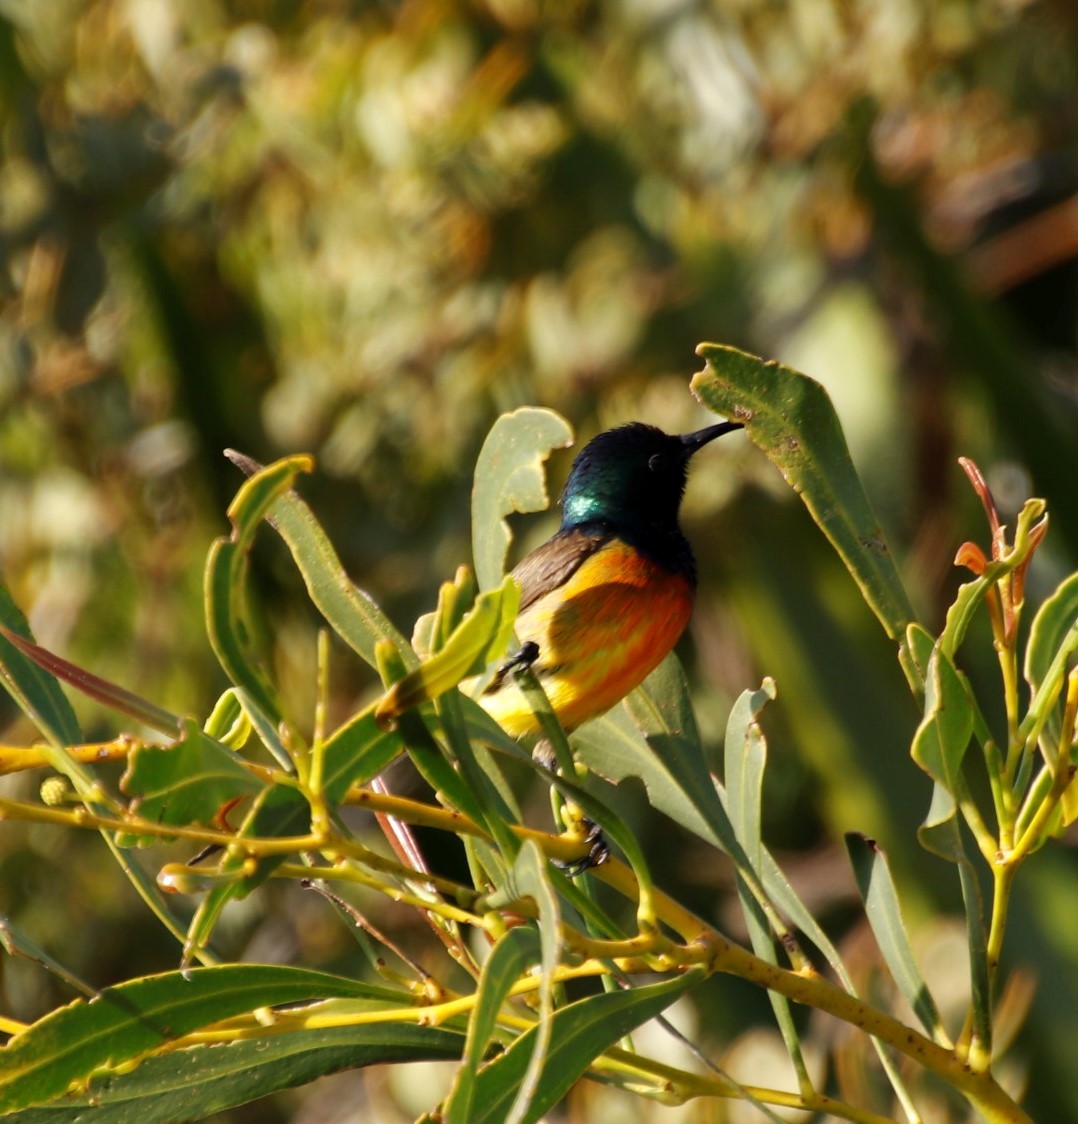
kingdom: Animalia
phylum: Chordata
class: Aves
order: Passeriformes
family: Nectariniidae
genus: Anthobaphes
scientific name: Anthobaphes violacea
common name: Orange-breasted sunbird
